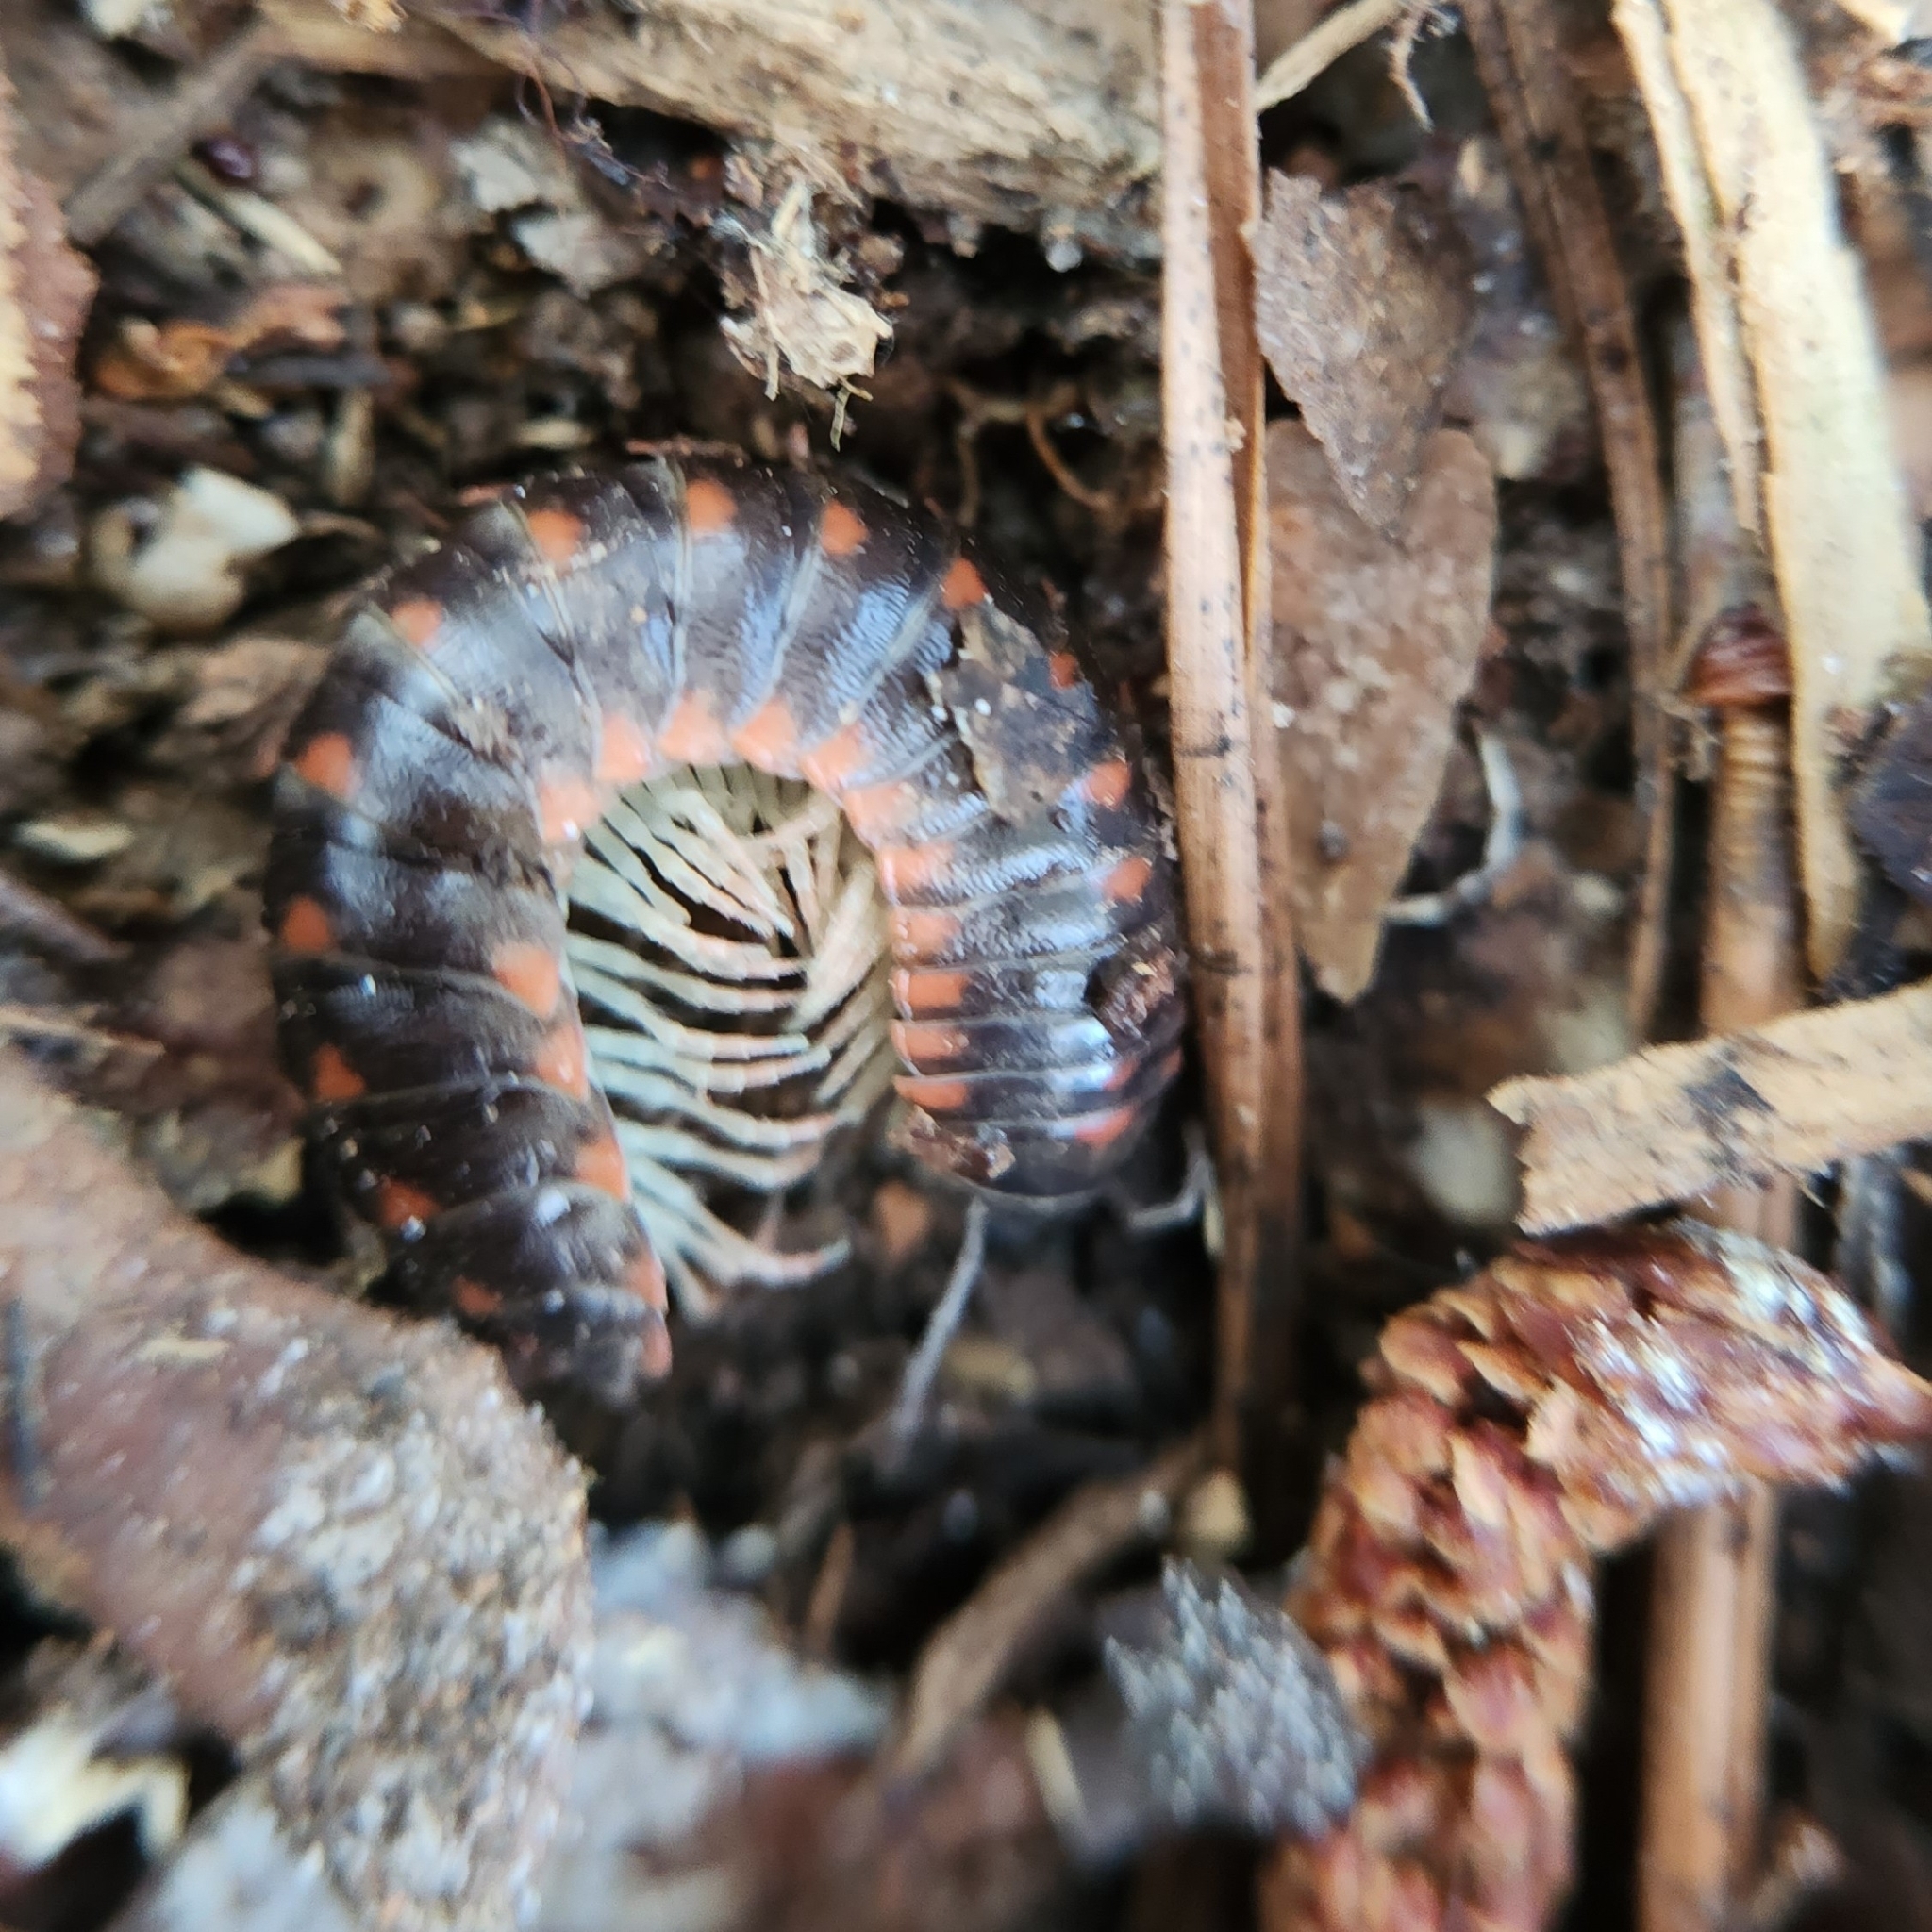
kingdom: Animalia
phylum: Arthropoda
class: Diplopoda
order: Polydesmida
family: Xystodesmidae
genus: Cherokia
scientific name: Cherokia georgiana
